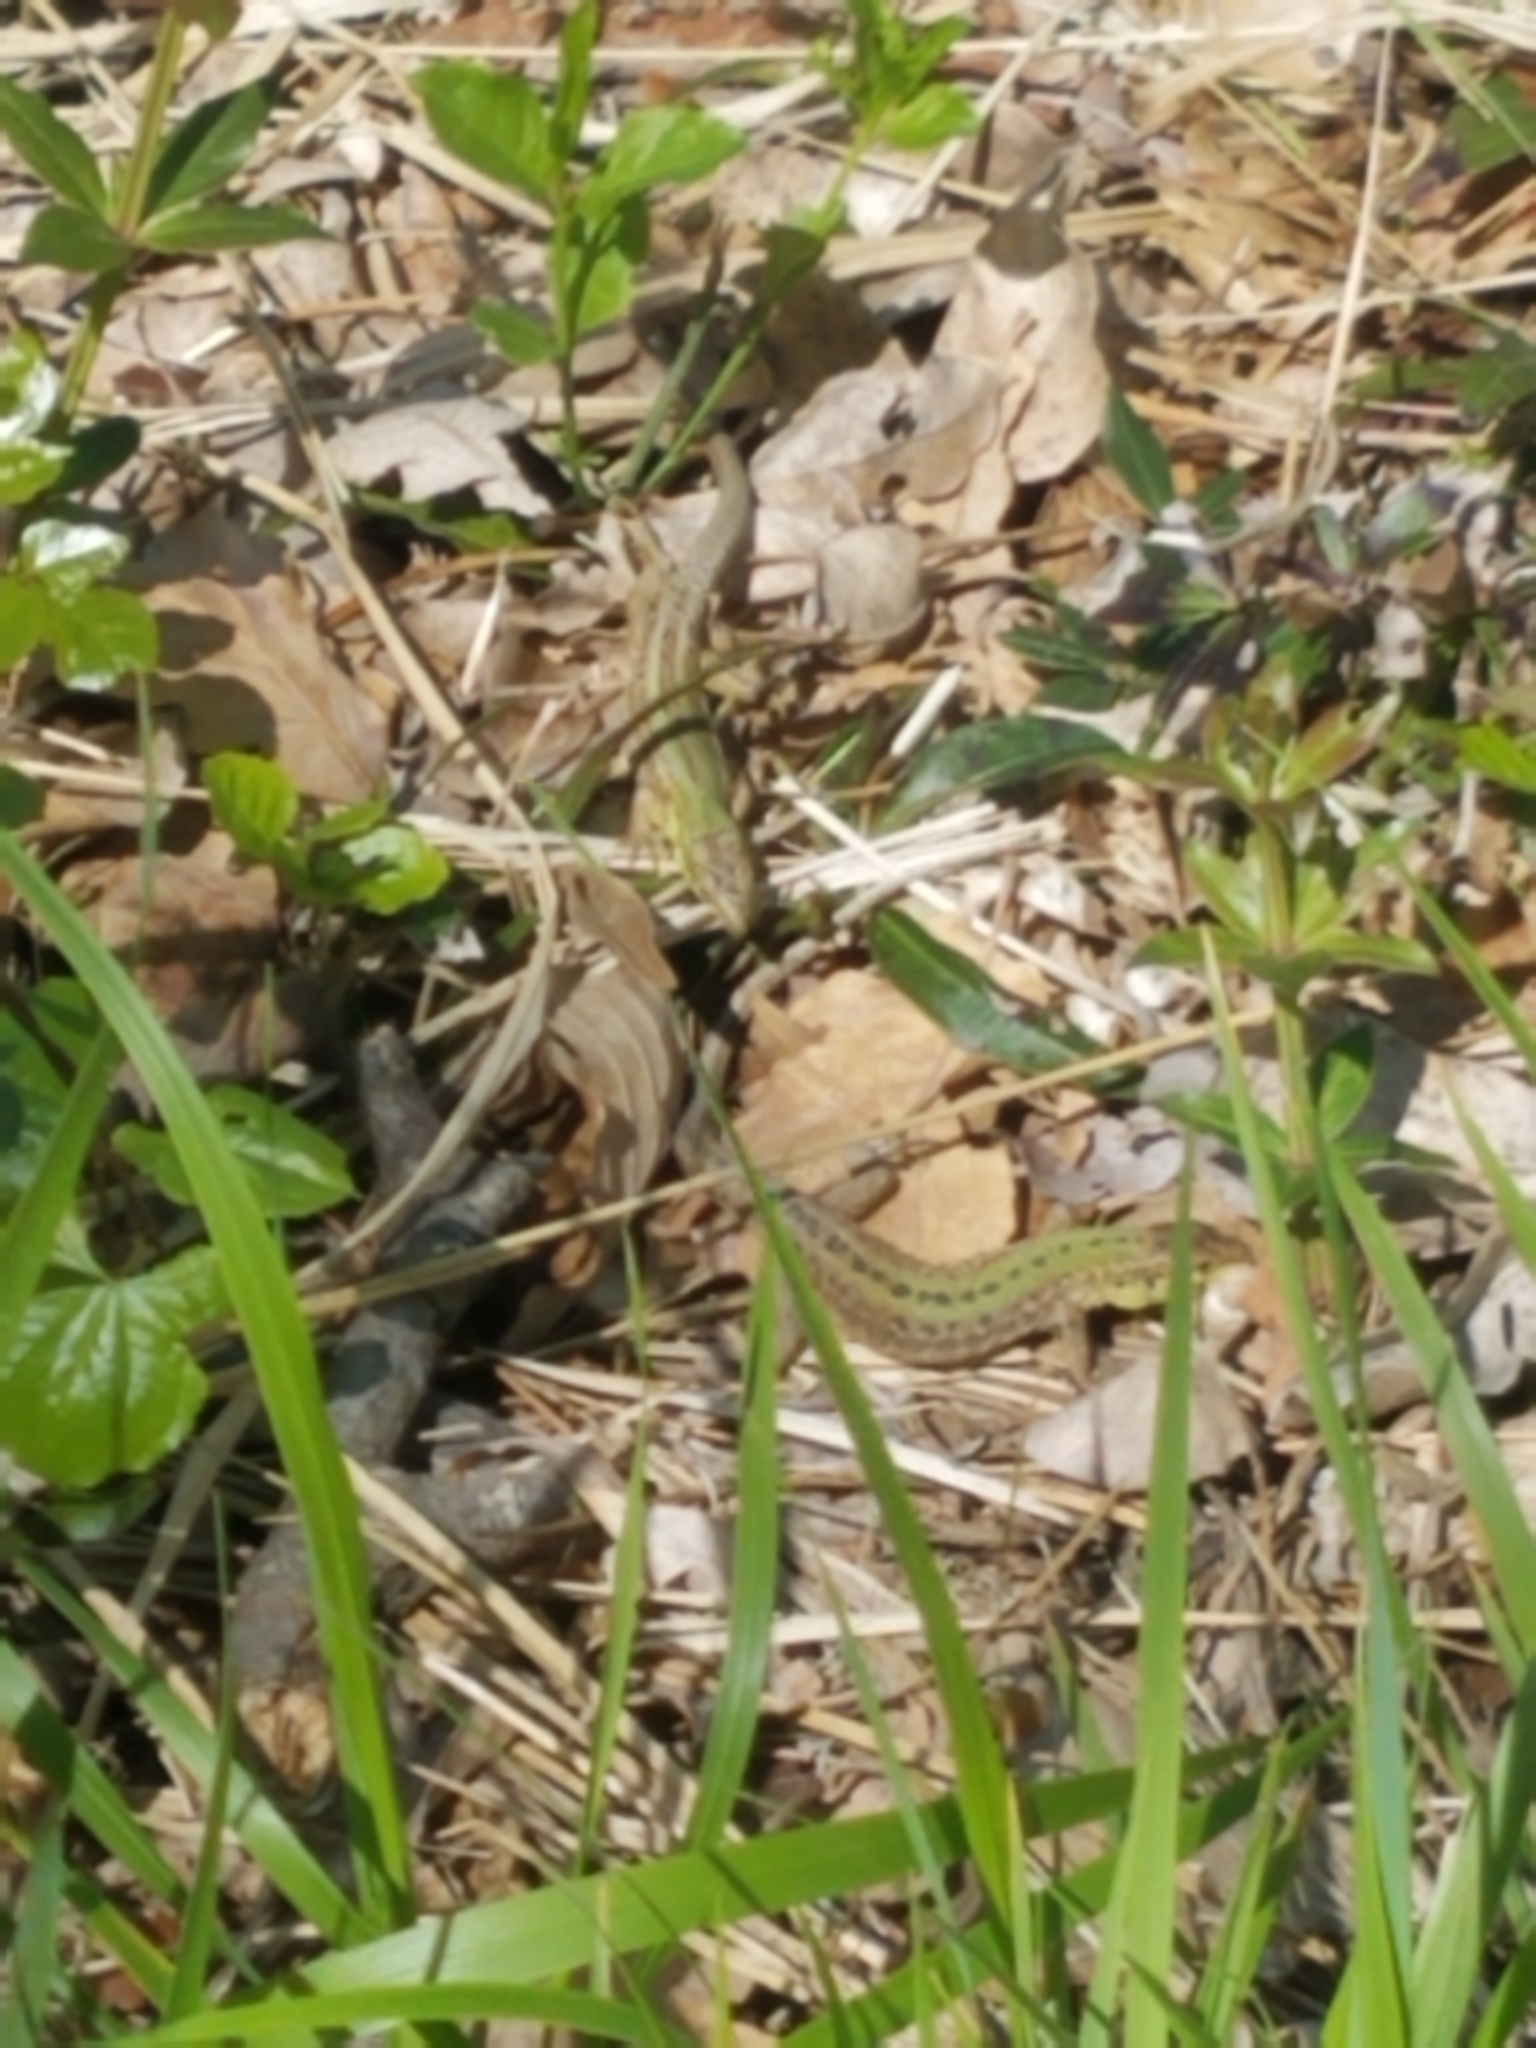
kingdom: Animalia
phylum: Chordata
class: Squamata
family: Lacertidae
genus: Podarcis
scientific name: Podarcis siculus
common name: Italian wall lizard
